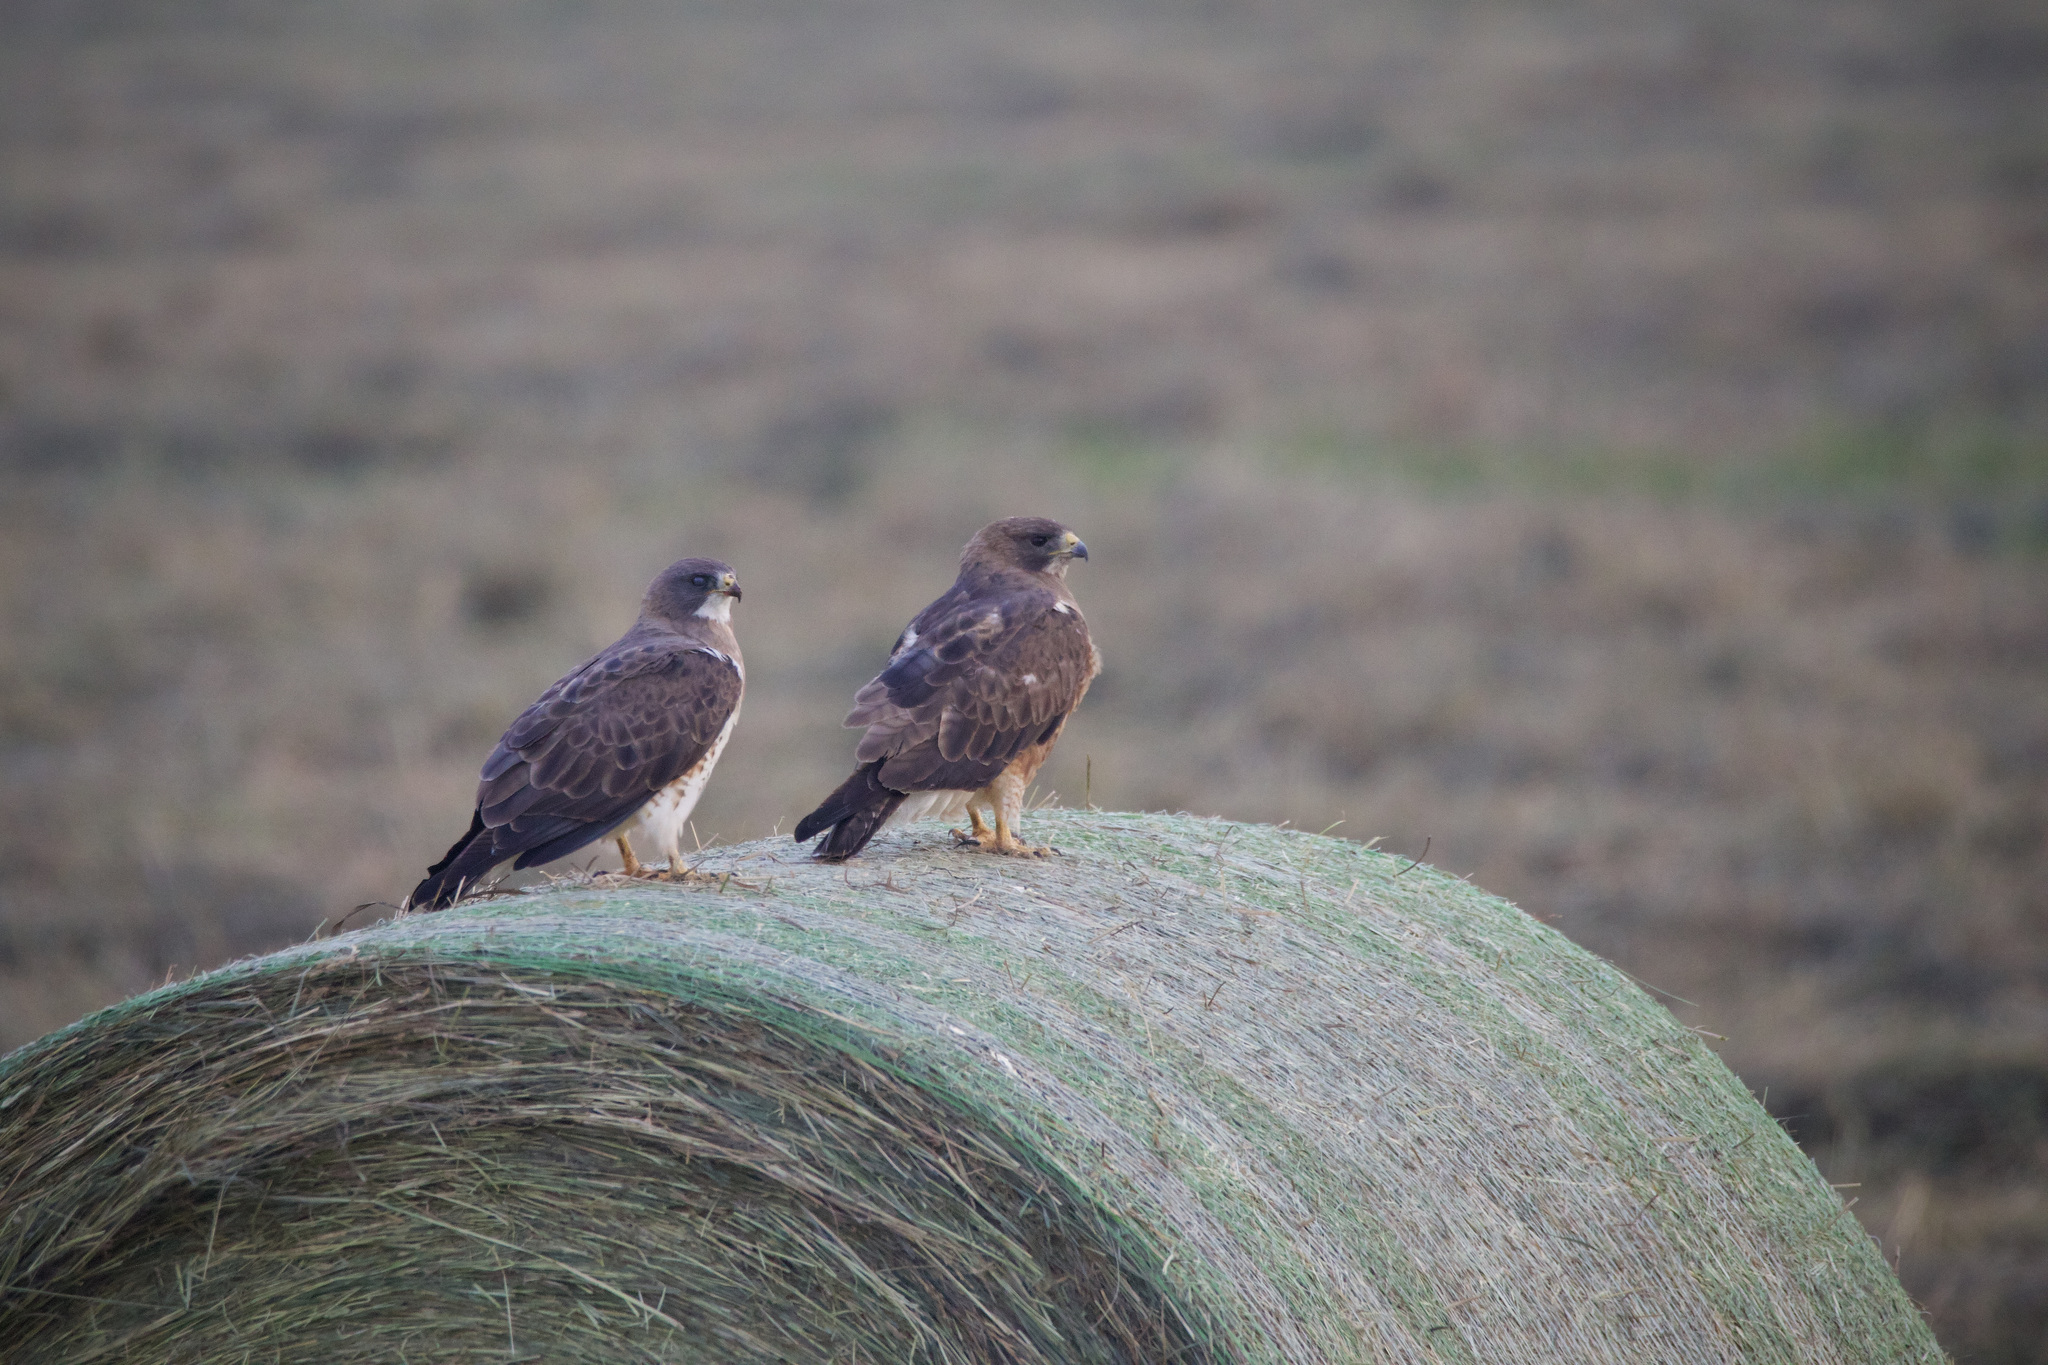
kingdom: Animalia
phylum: Chordata
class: Aves
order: Accipitriformes
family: Accipitridae
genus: Buteo
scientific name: Buteo swainsoni
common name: Swainson's hawk
